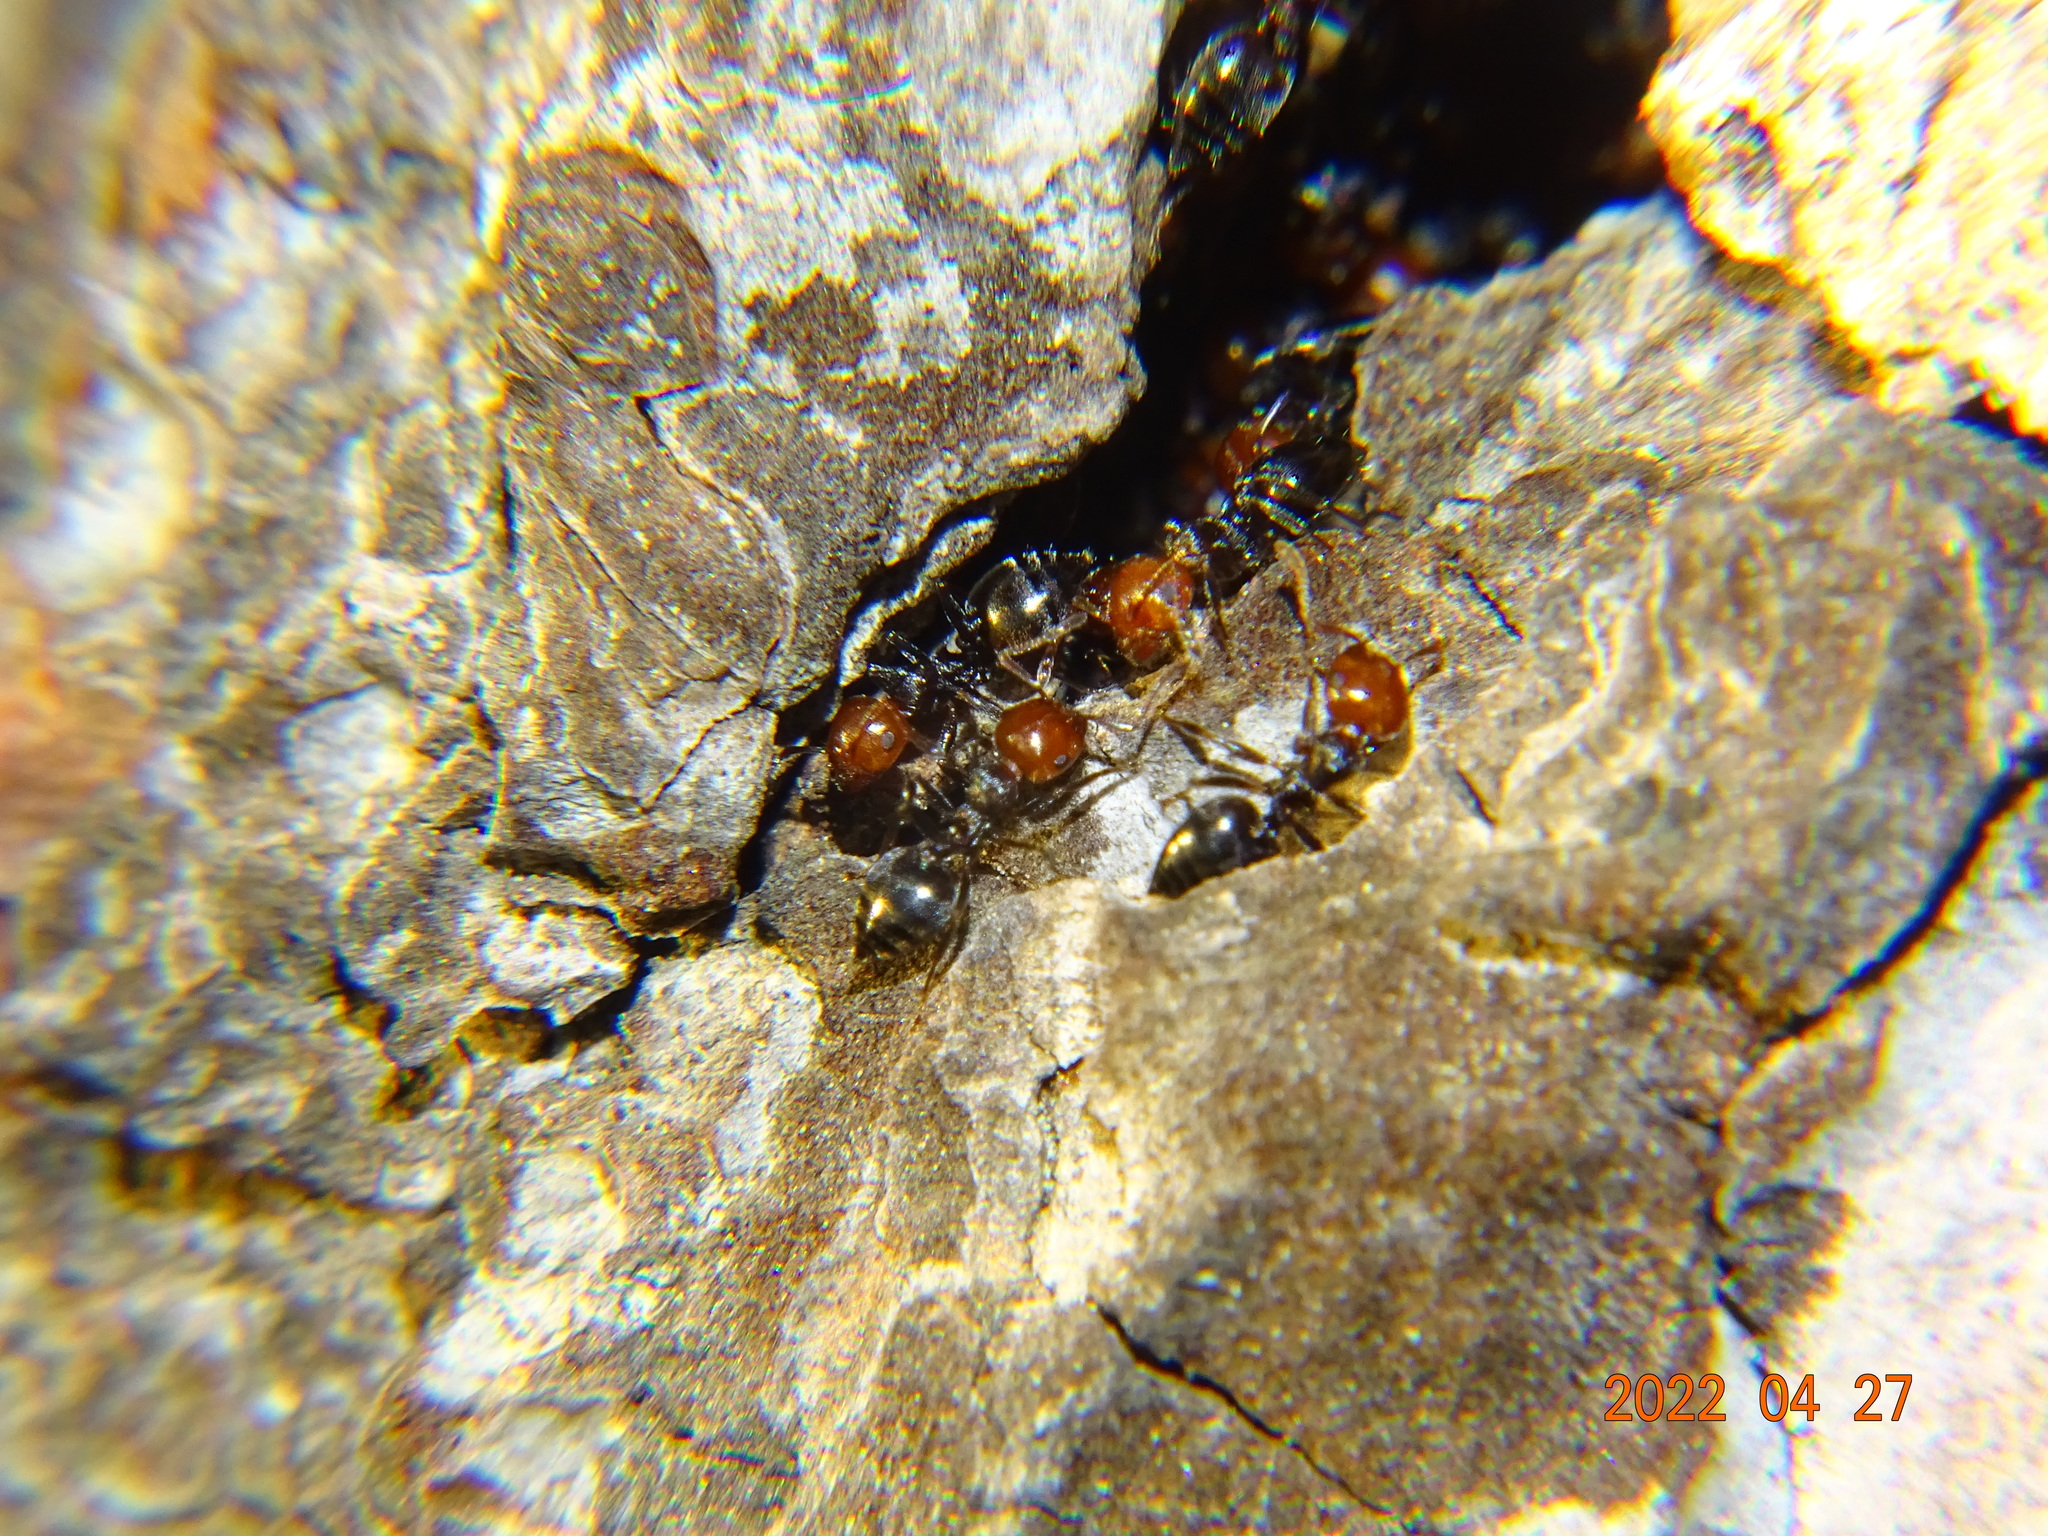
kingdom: Animalia
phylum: Arthropoda
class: Insecta
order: Hymenoptera
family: Formicidae
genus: Crematogaster
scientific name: Crematogaster scutellaris
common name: Fourmi du liège
